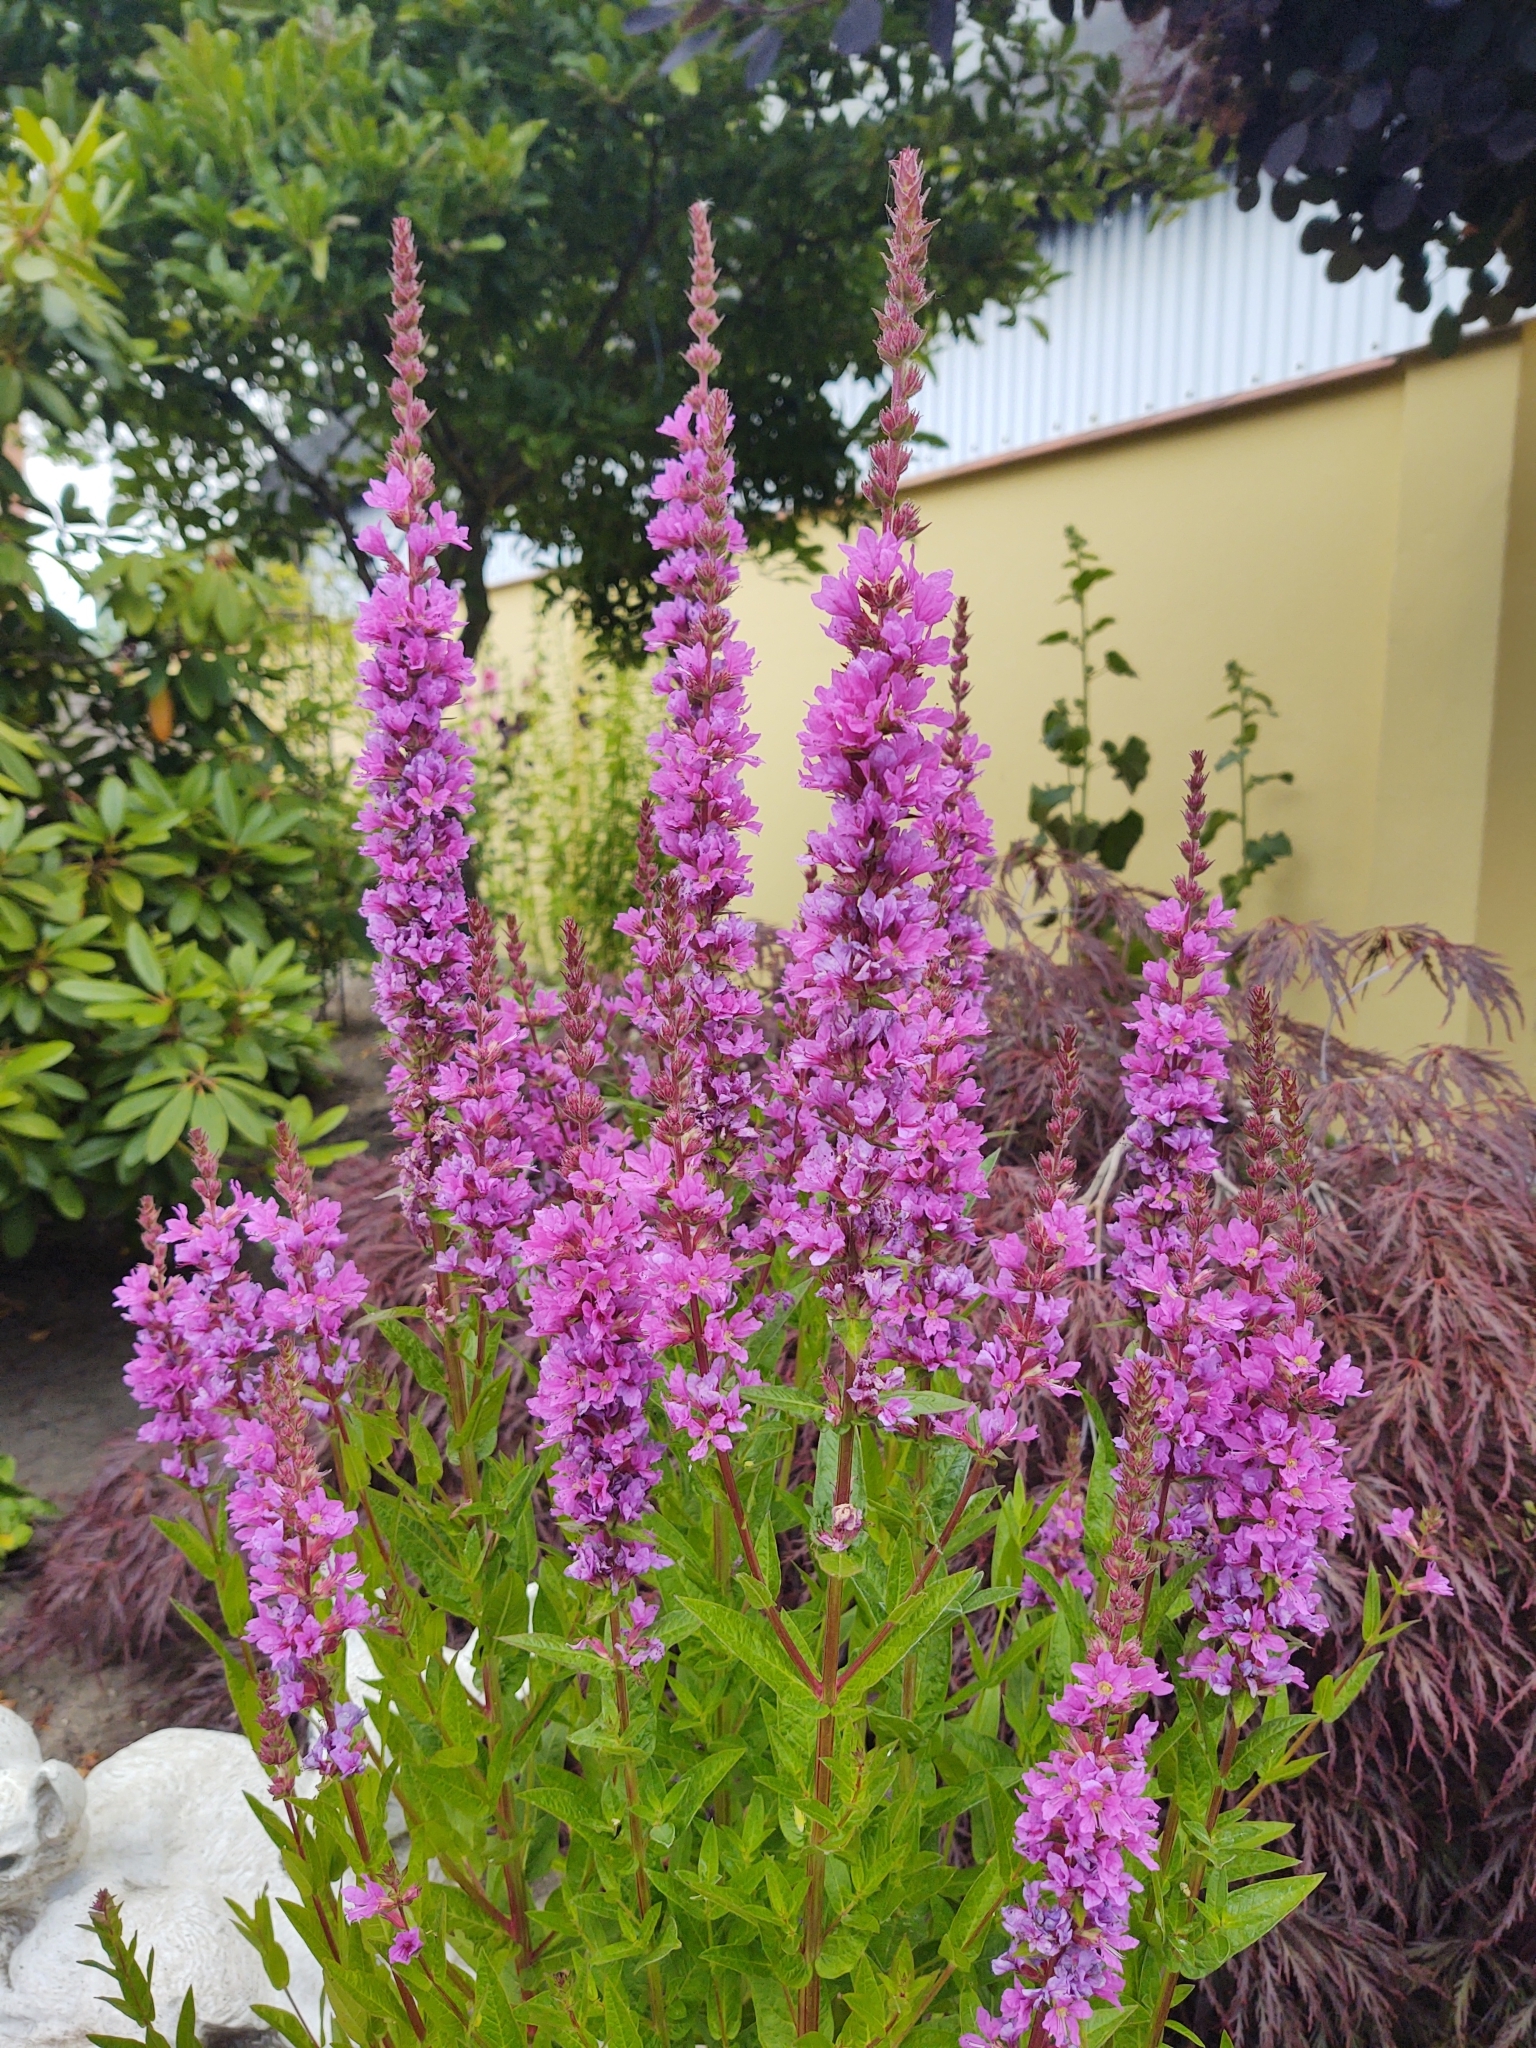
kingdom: Plantae
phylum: Tracheophyta
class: Magnoliopsida
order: Myrtales
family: Lythraceae
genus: Lythrum
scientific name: Lythrum salicaria
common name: Purple loosestrife
